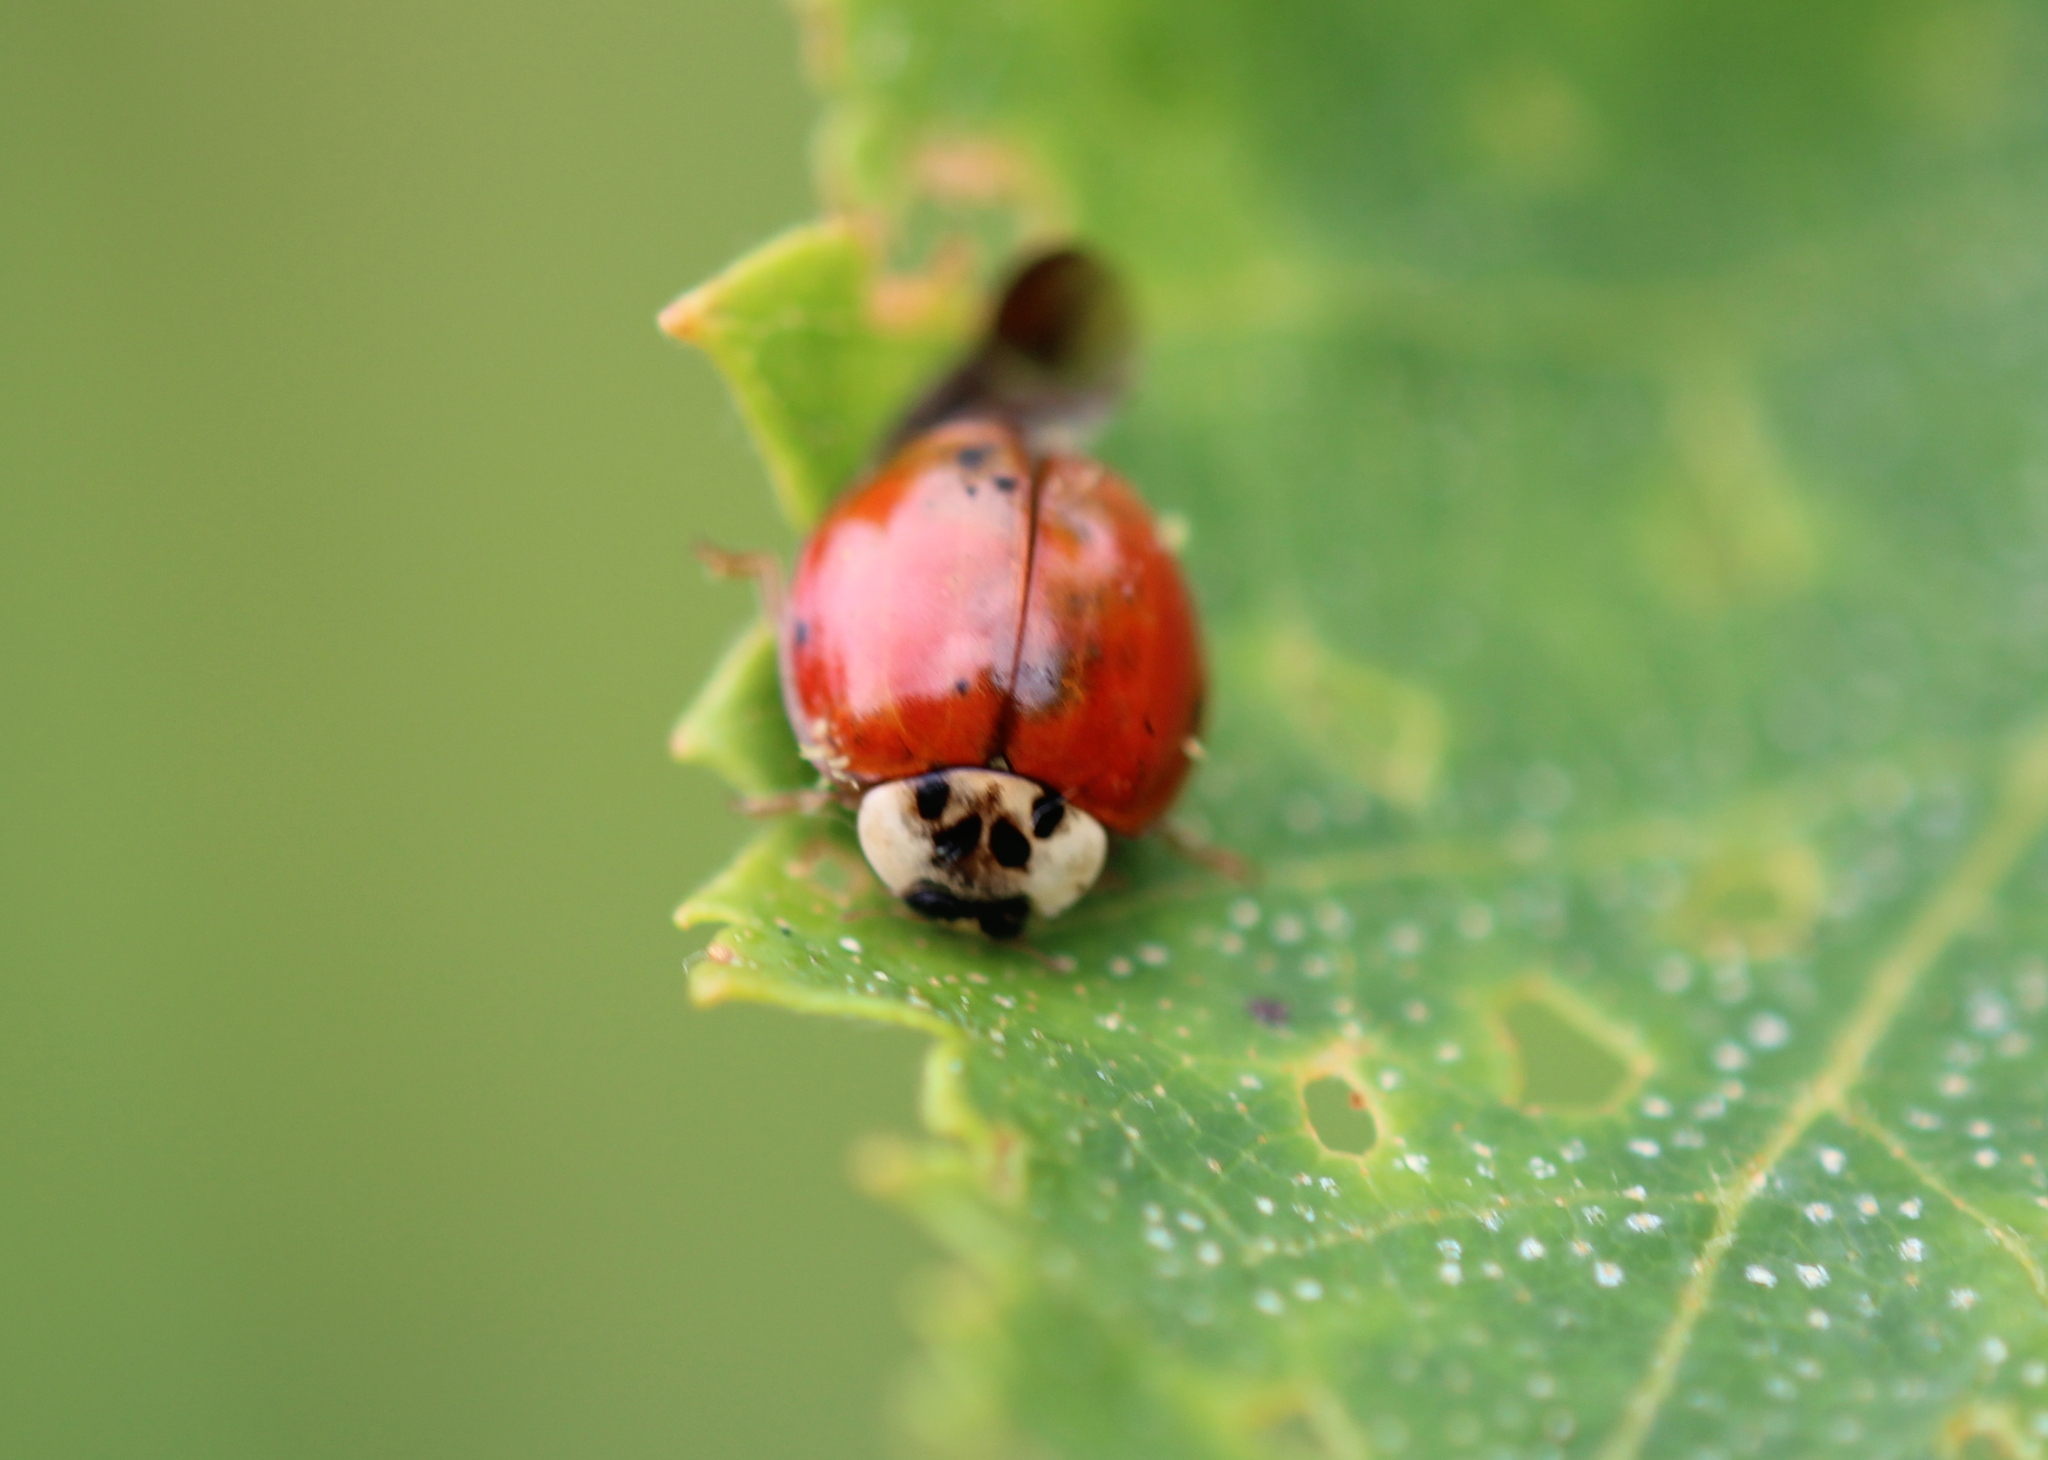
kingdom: Animalia
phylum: Arthropoda
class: Insecta
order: Coleoptera
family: Coccinellidae
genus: Harmonia
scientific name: Harmonia axyridis
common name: Harlequin ladybird
